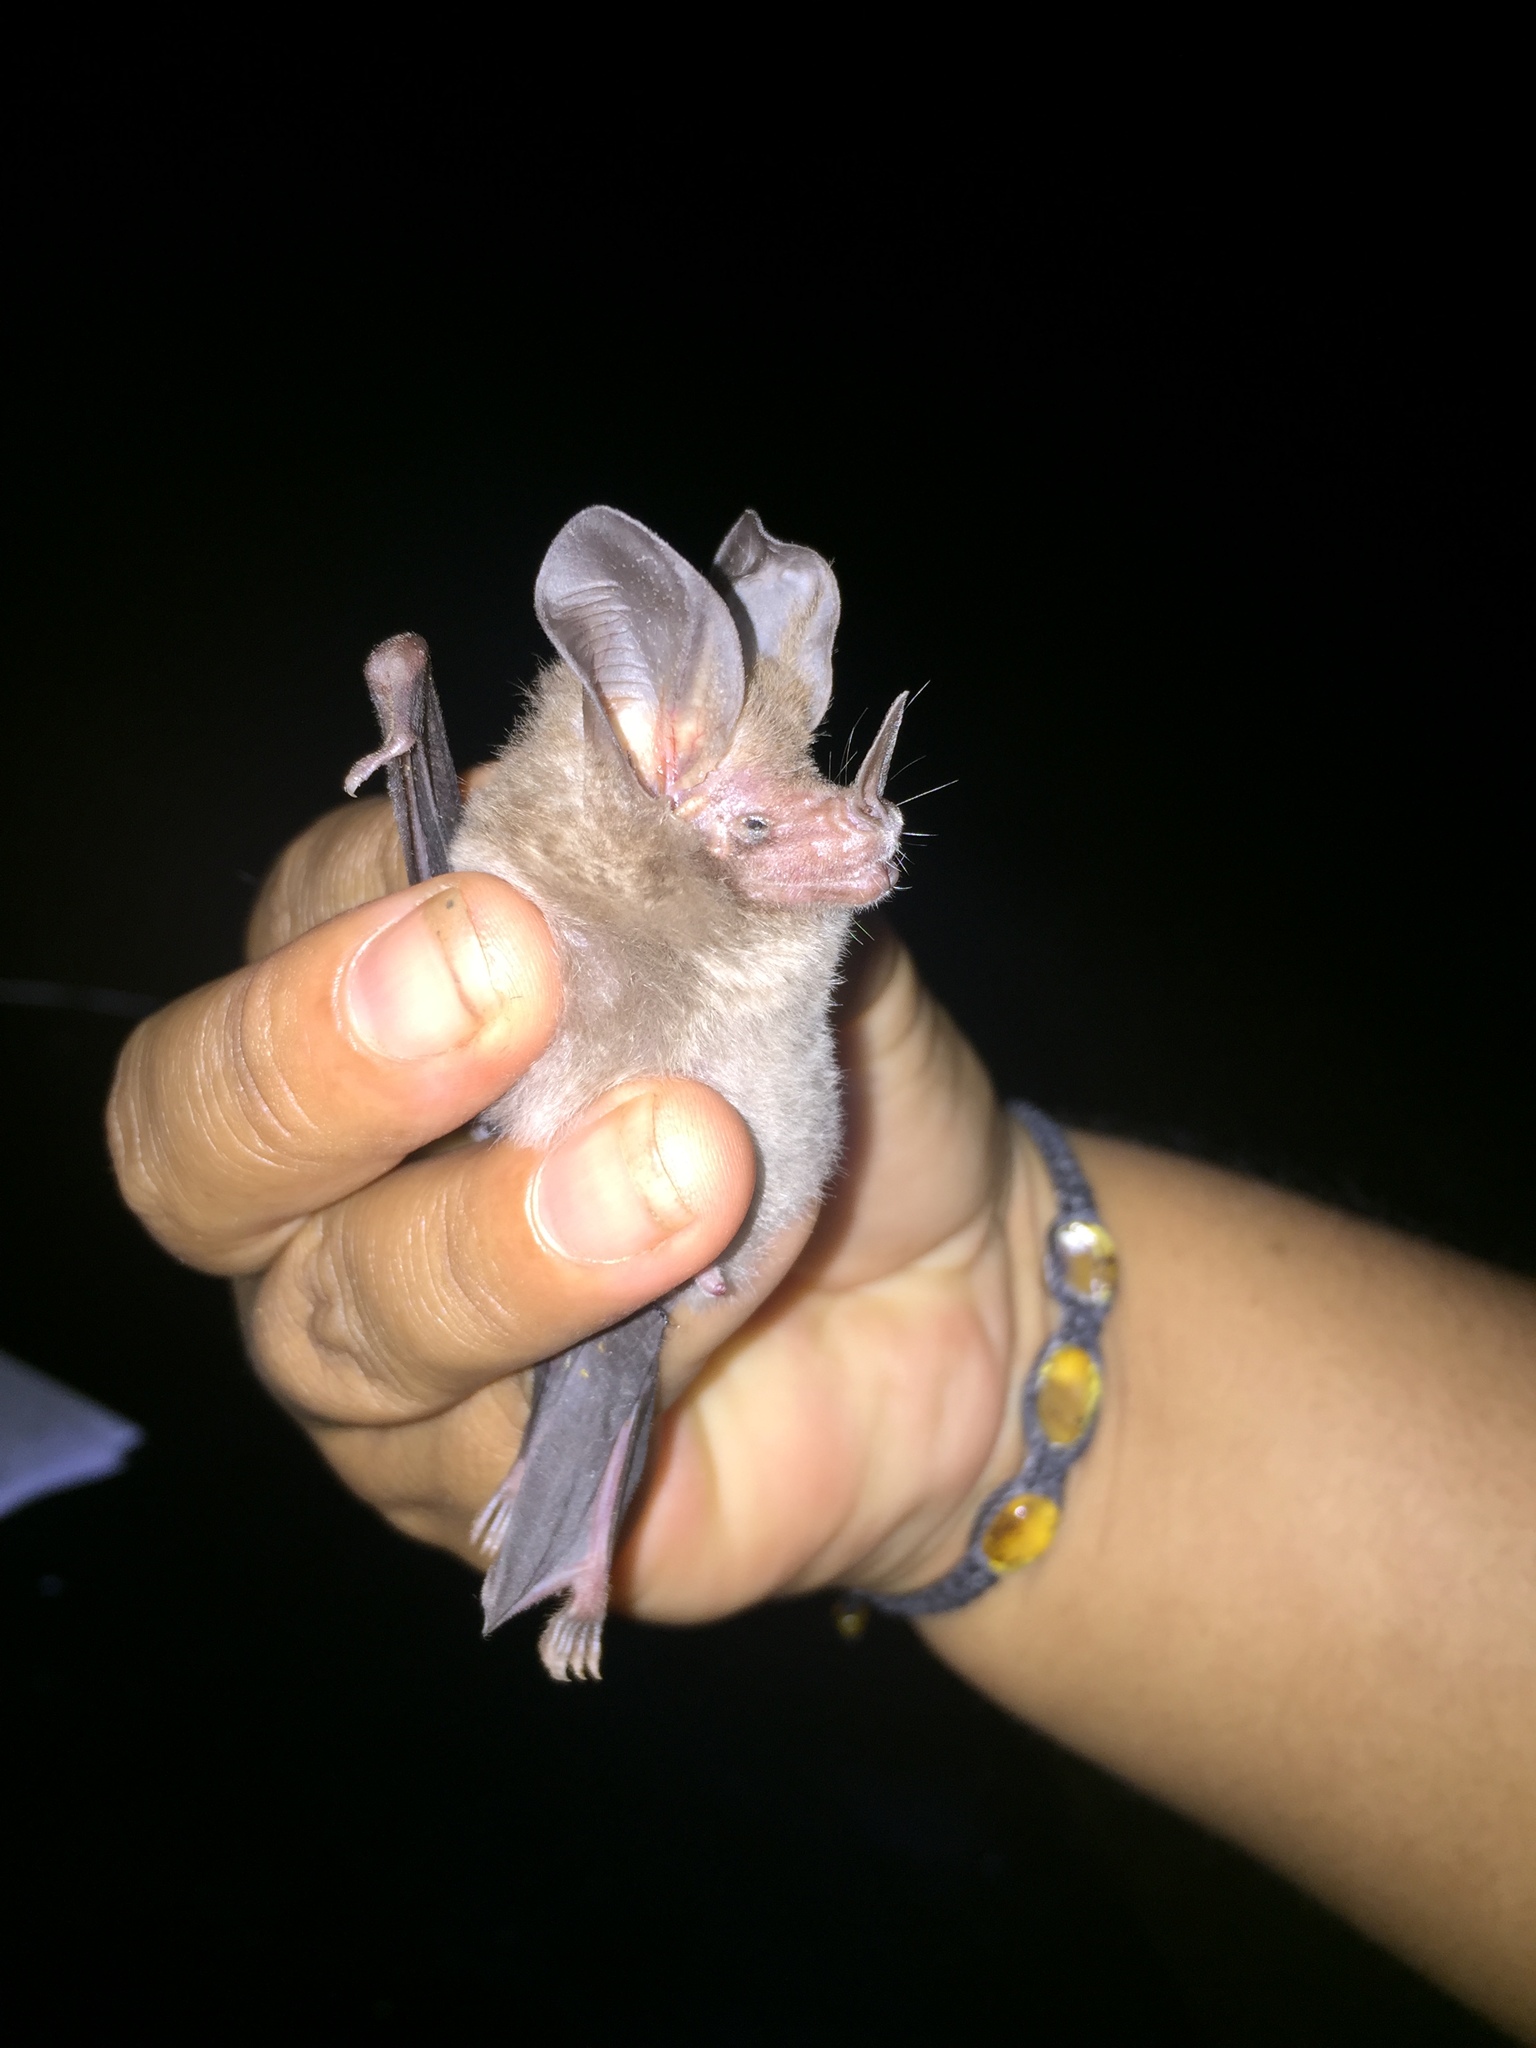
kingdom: Animalia
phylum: Chordata
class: Mammalia
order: Chiroptera
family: Phyllostomidae
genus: Micronycteris
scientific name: Micronycteris microtis
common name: Common big-eared bat
